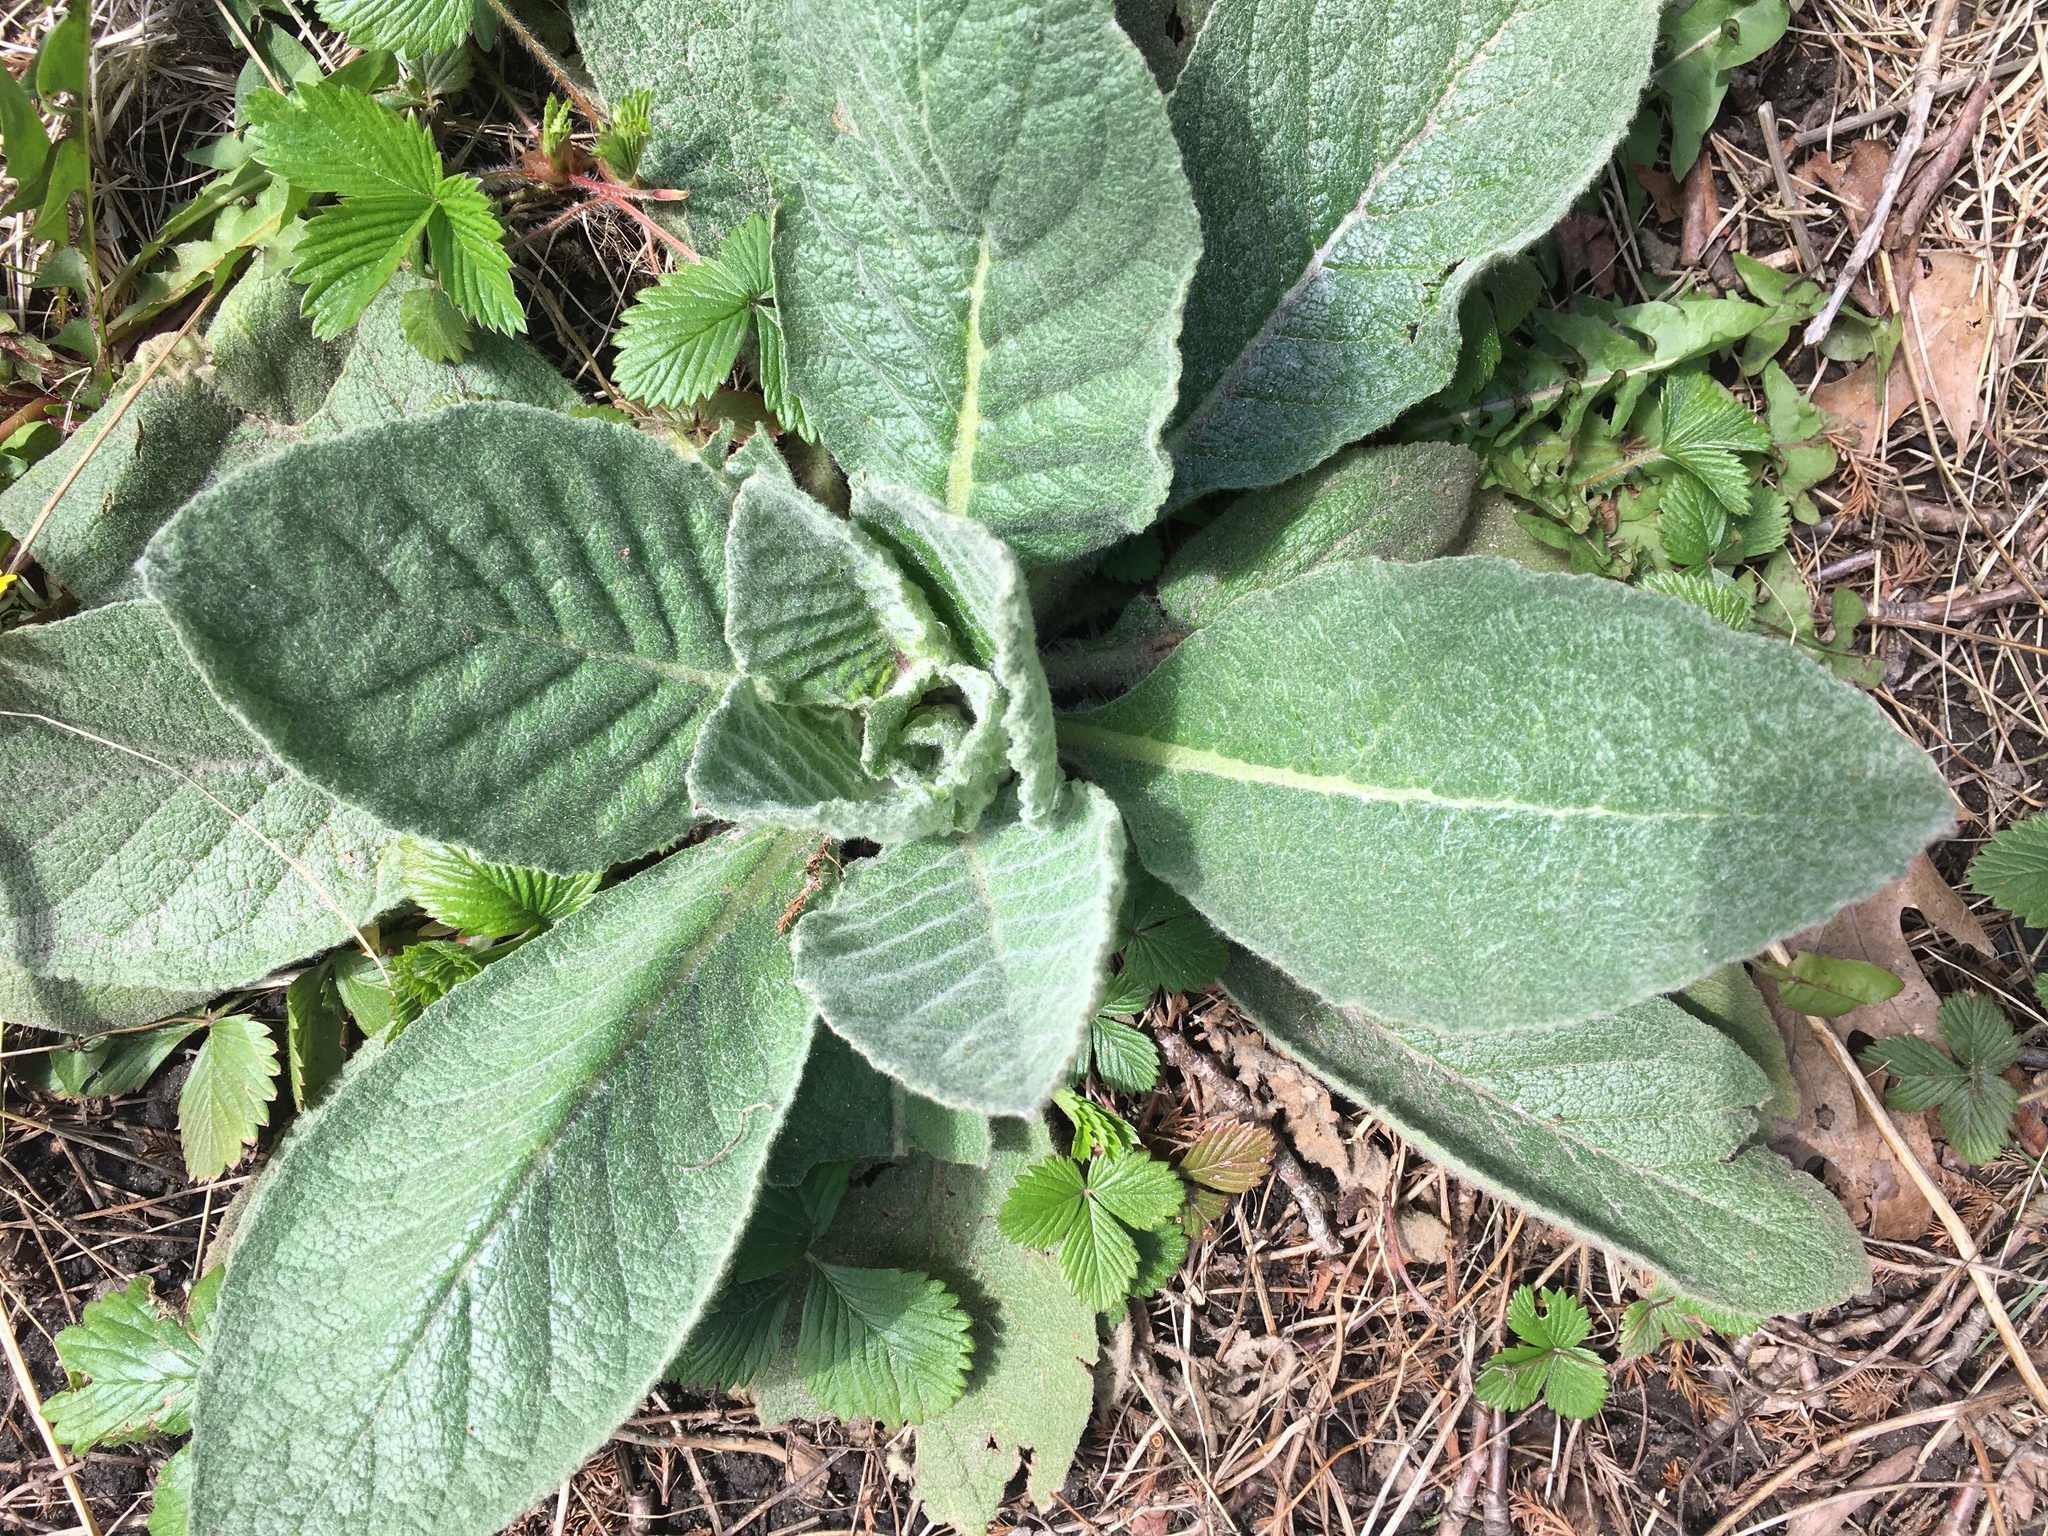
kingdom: Plantae
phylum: Tracheophyta
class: Magnoliopsida
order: Lamiales
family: Scrophulariaceae
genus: Verbascum
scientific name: Verbascum thapsus
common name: Common mullein
